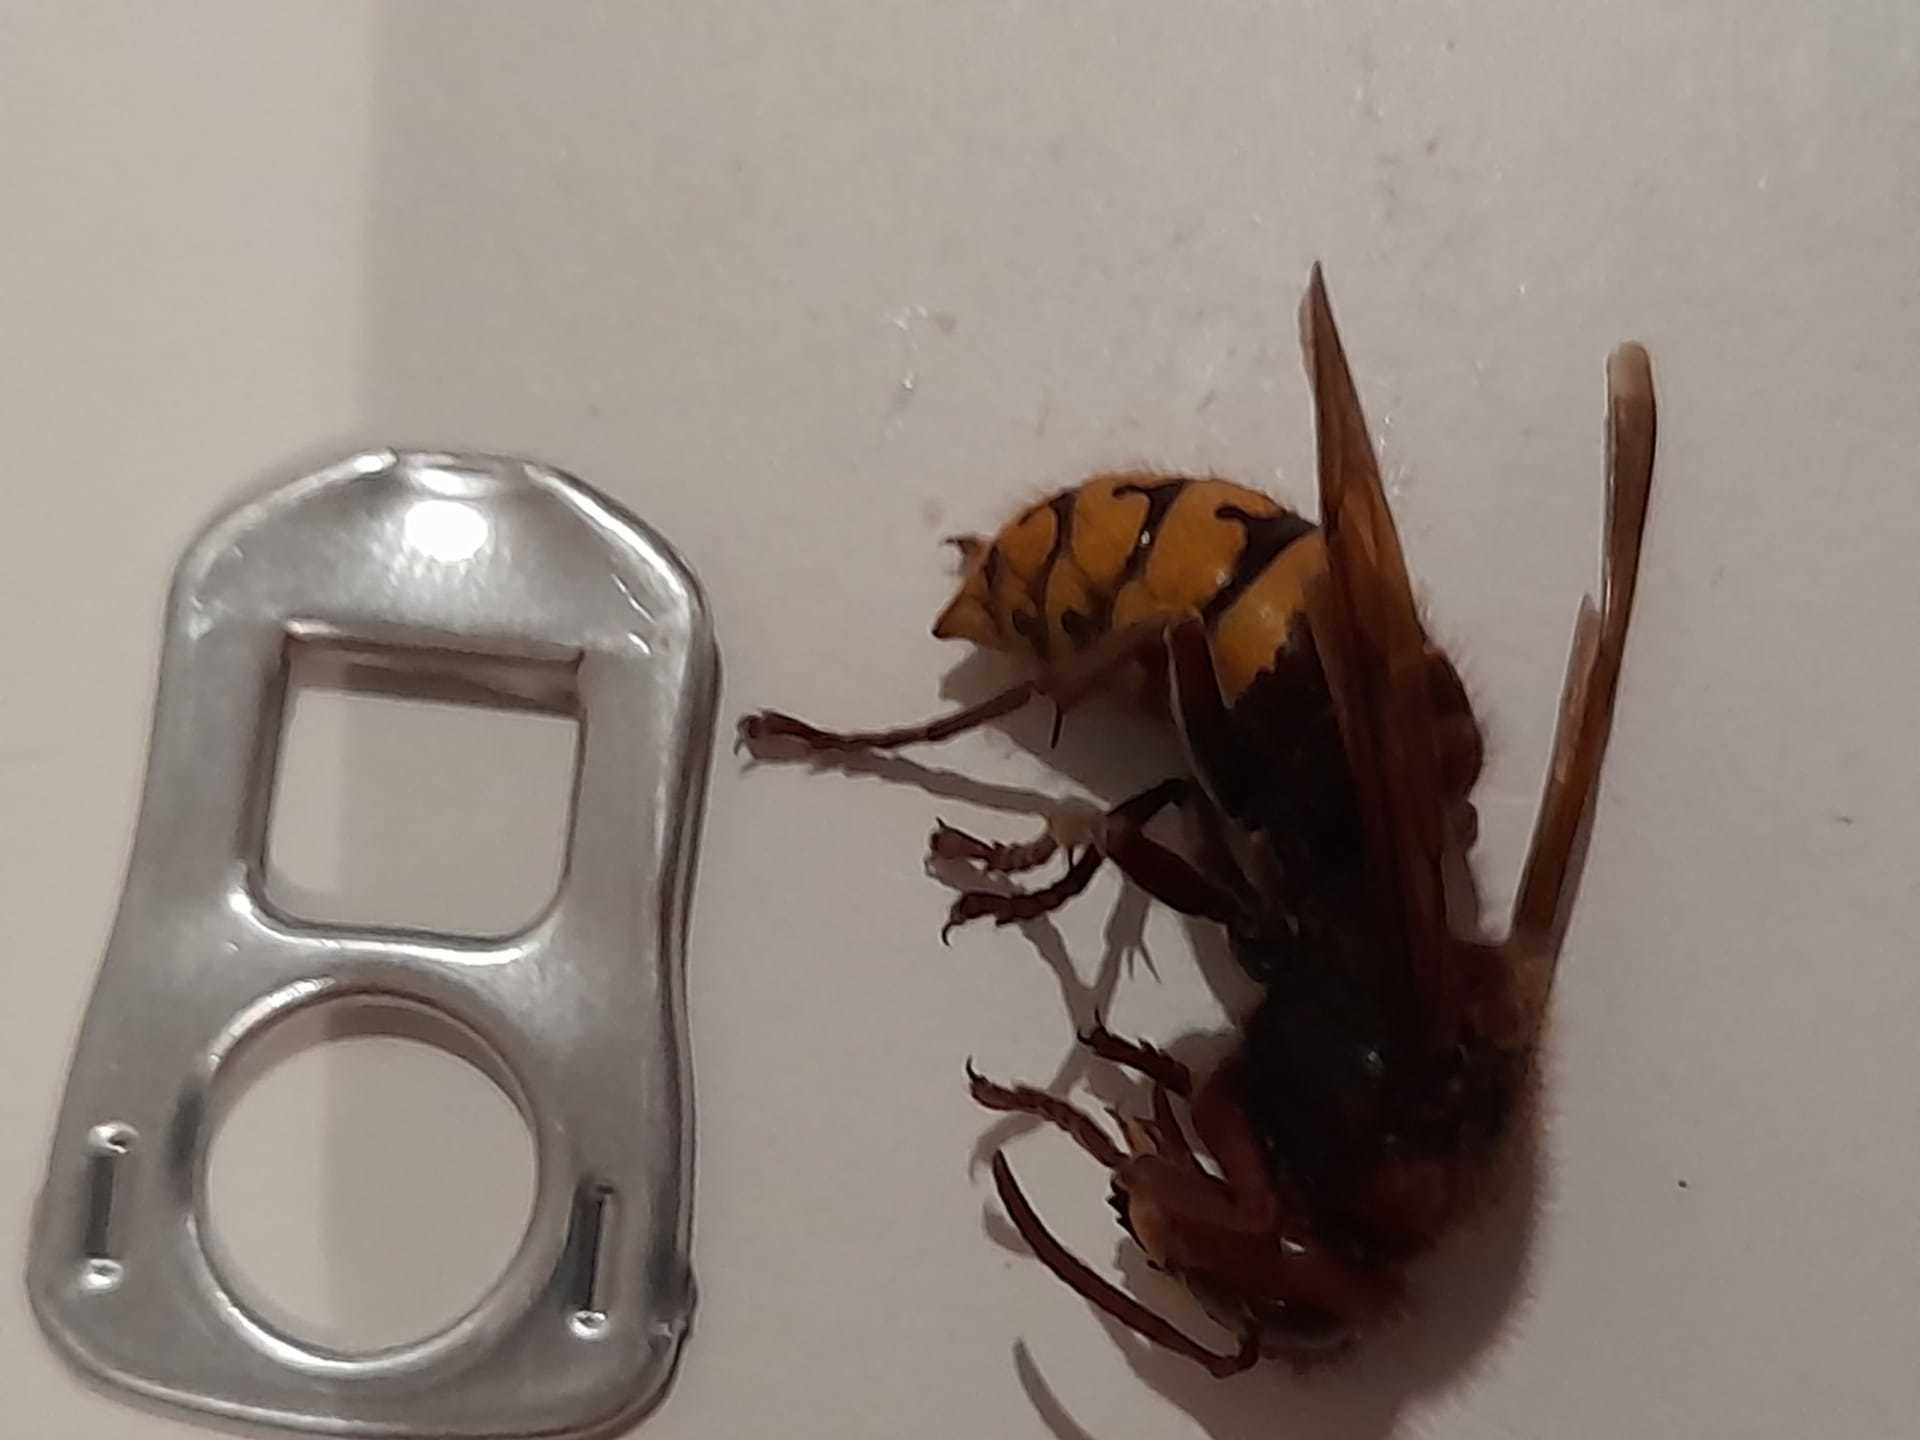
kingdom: Animalia
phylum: Arthropoda
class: Insecta
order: Hymenoptera
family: Vespidae
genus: Vespa
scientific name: Vespa crabro
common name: Hornet
